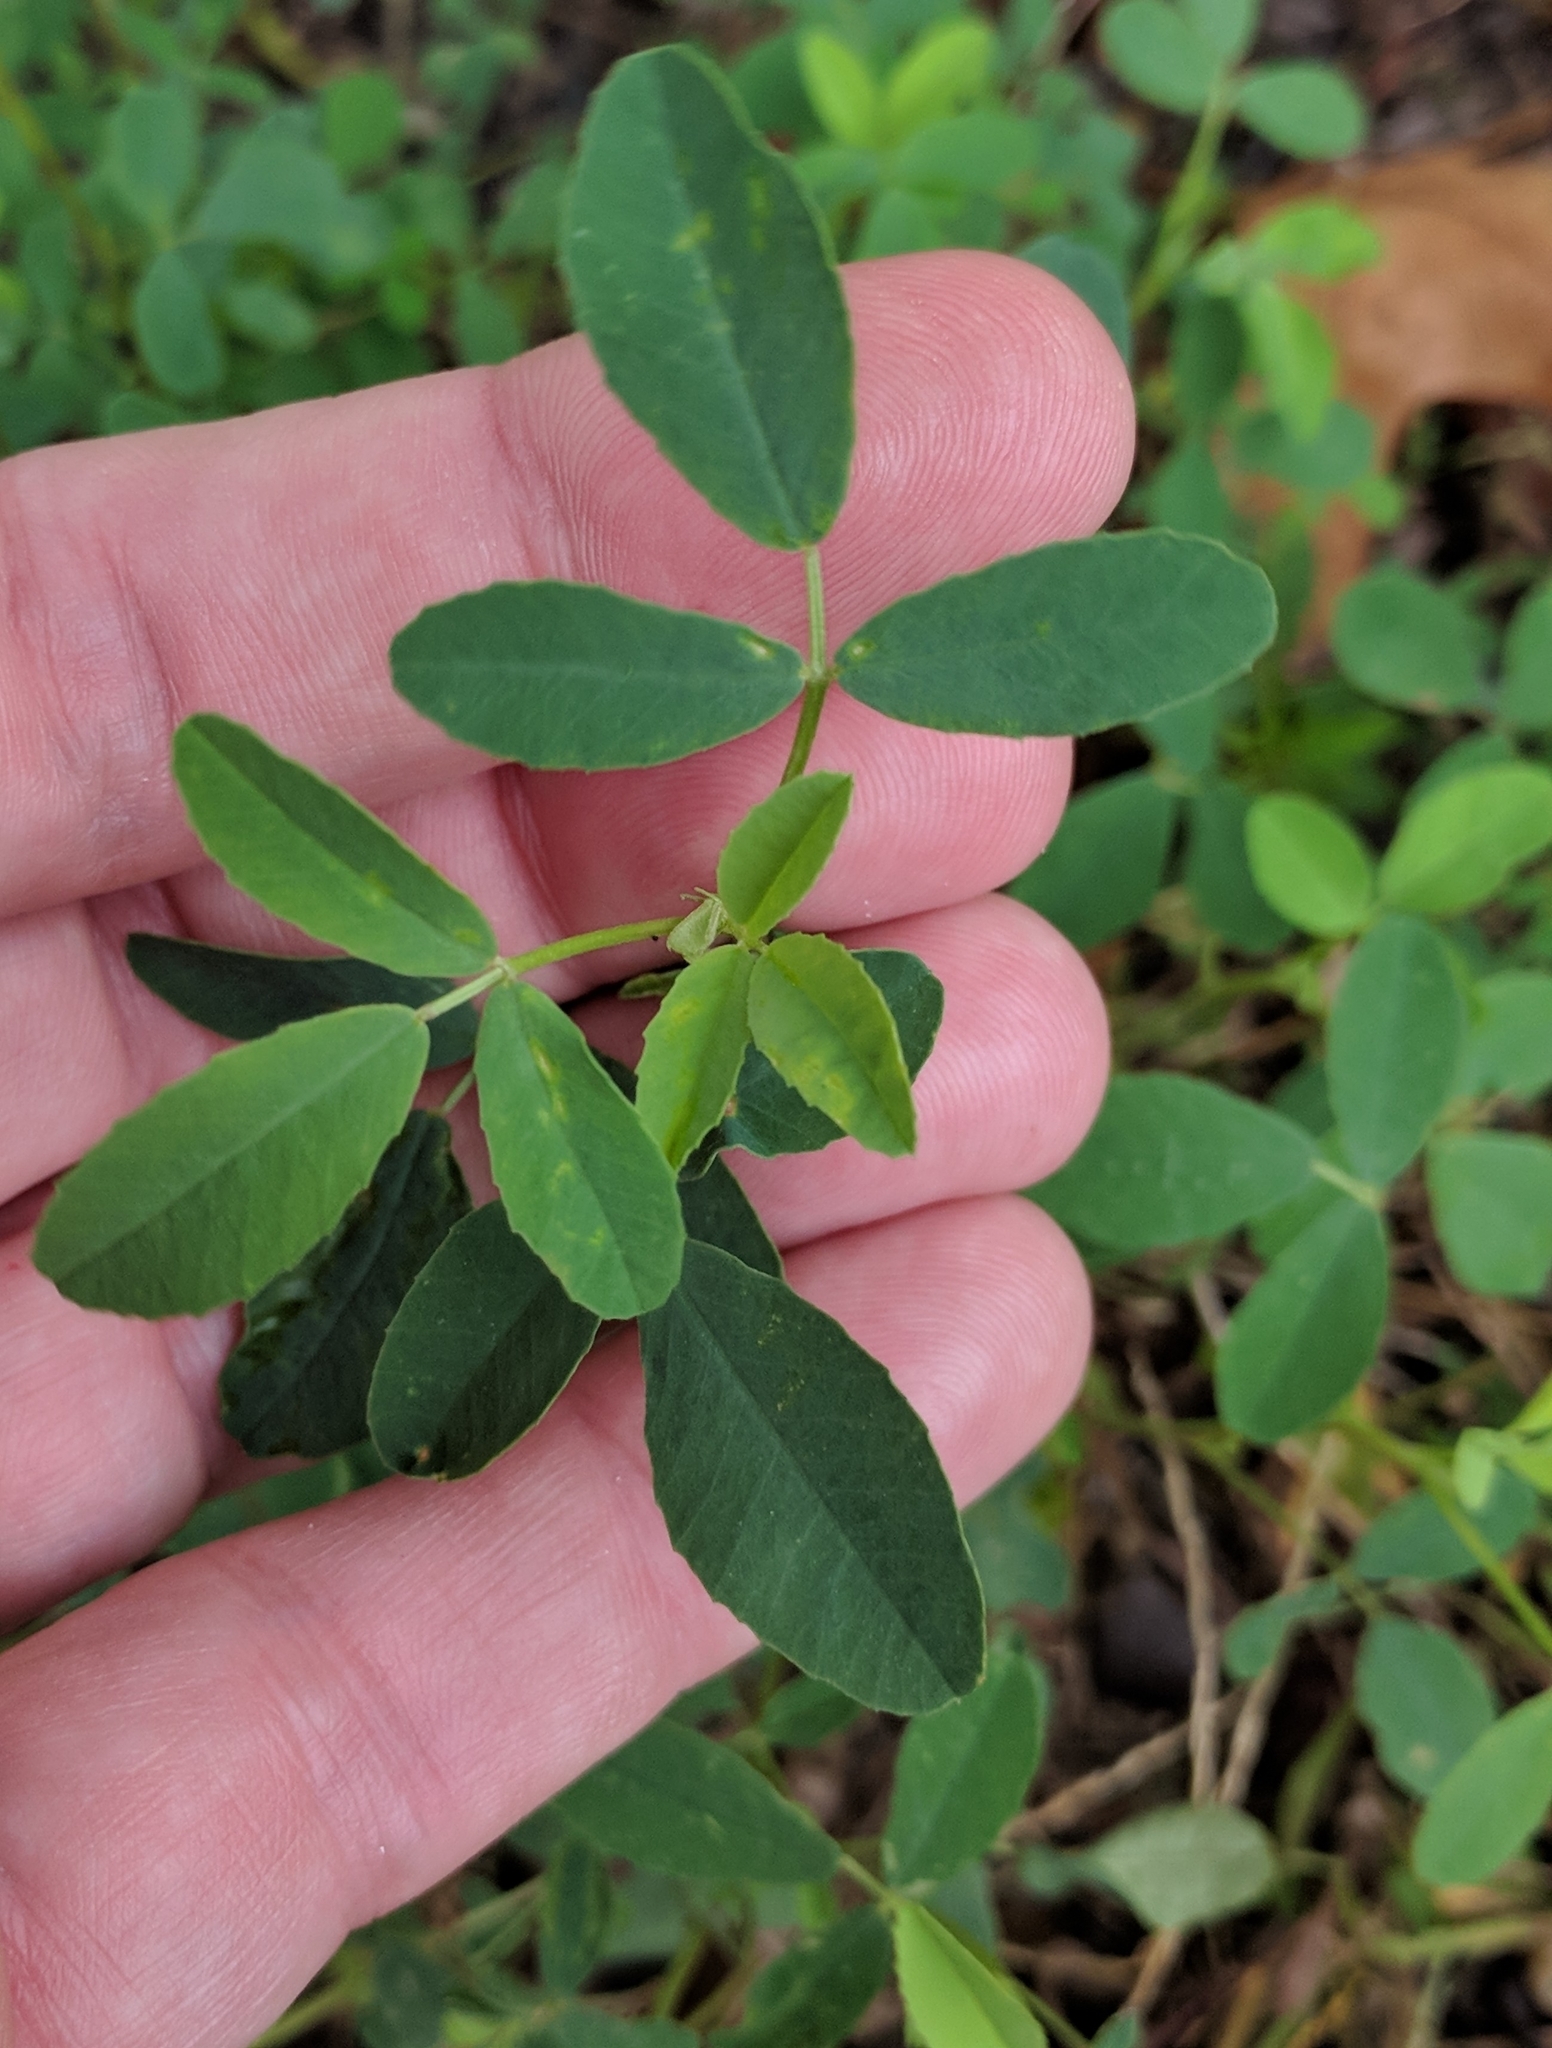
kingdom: Plantae
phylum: Tracheophyta
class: Magnoliopsida
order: Fabales
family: Fabaceae
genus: Melilotus
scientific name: Melilotus
